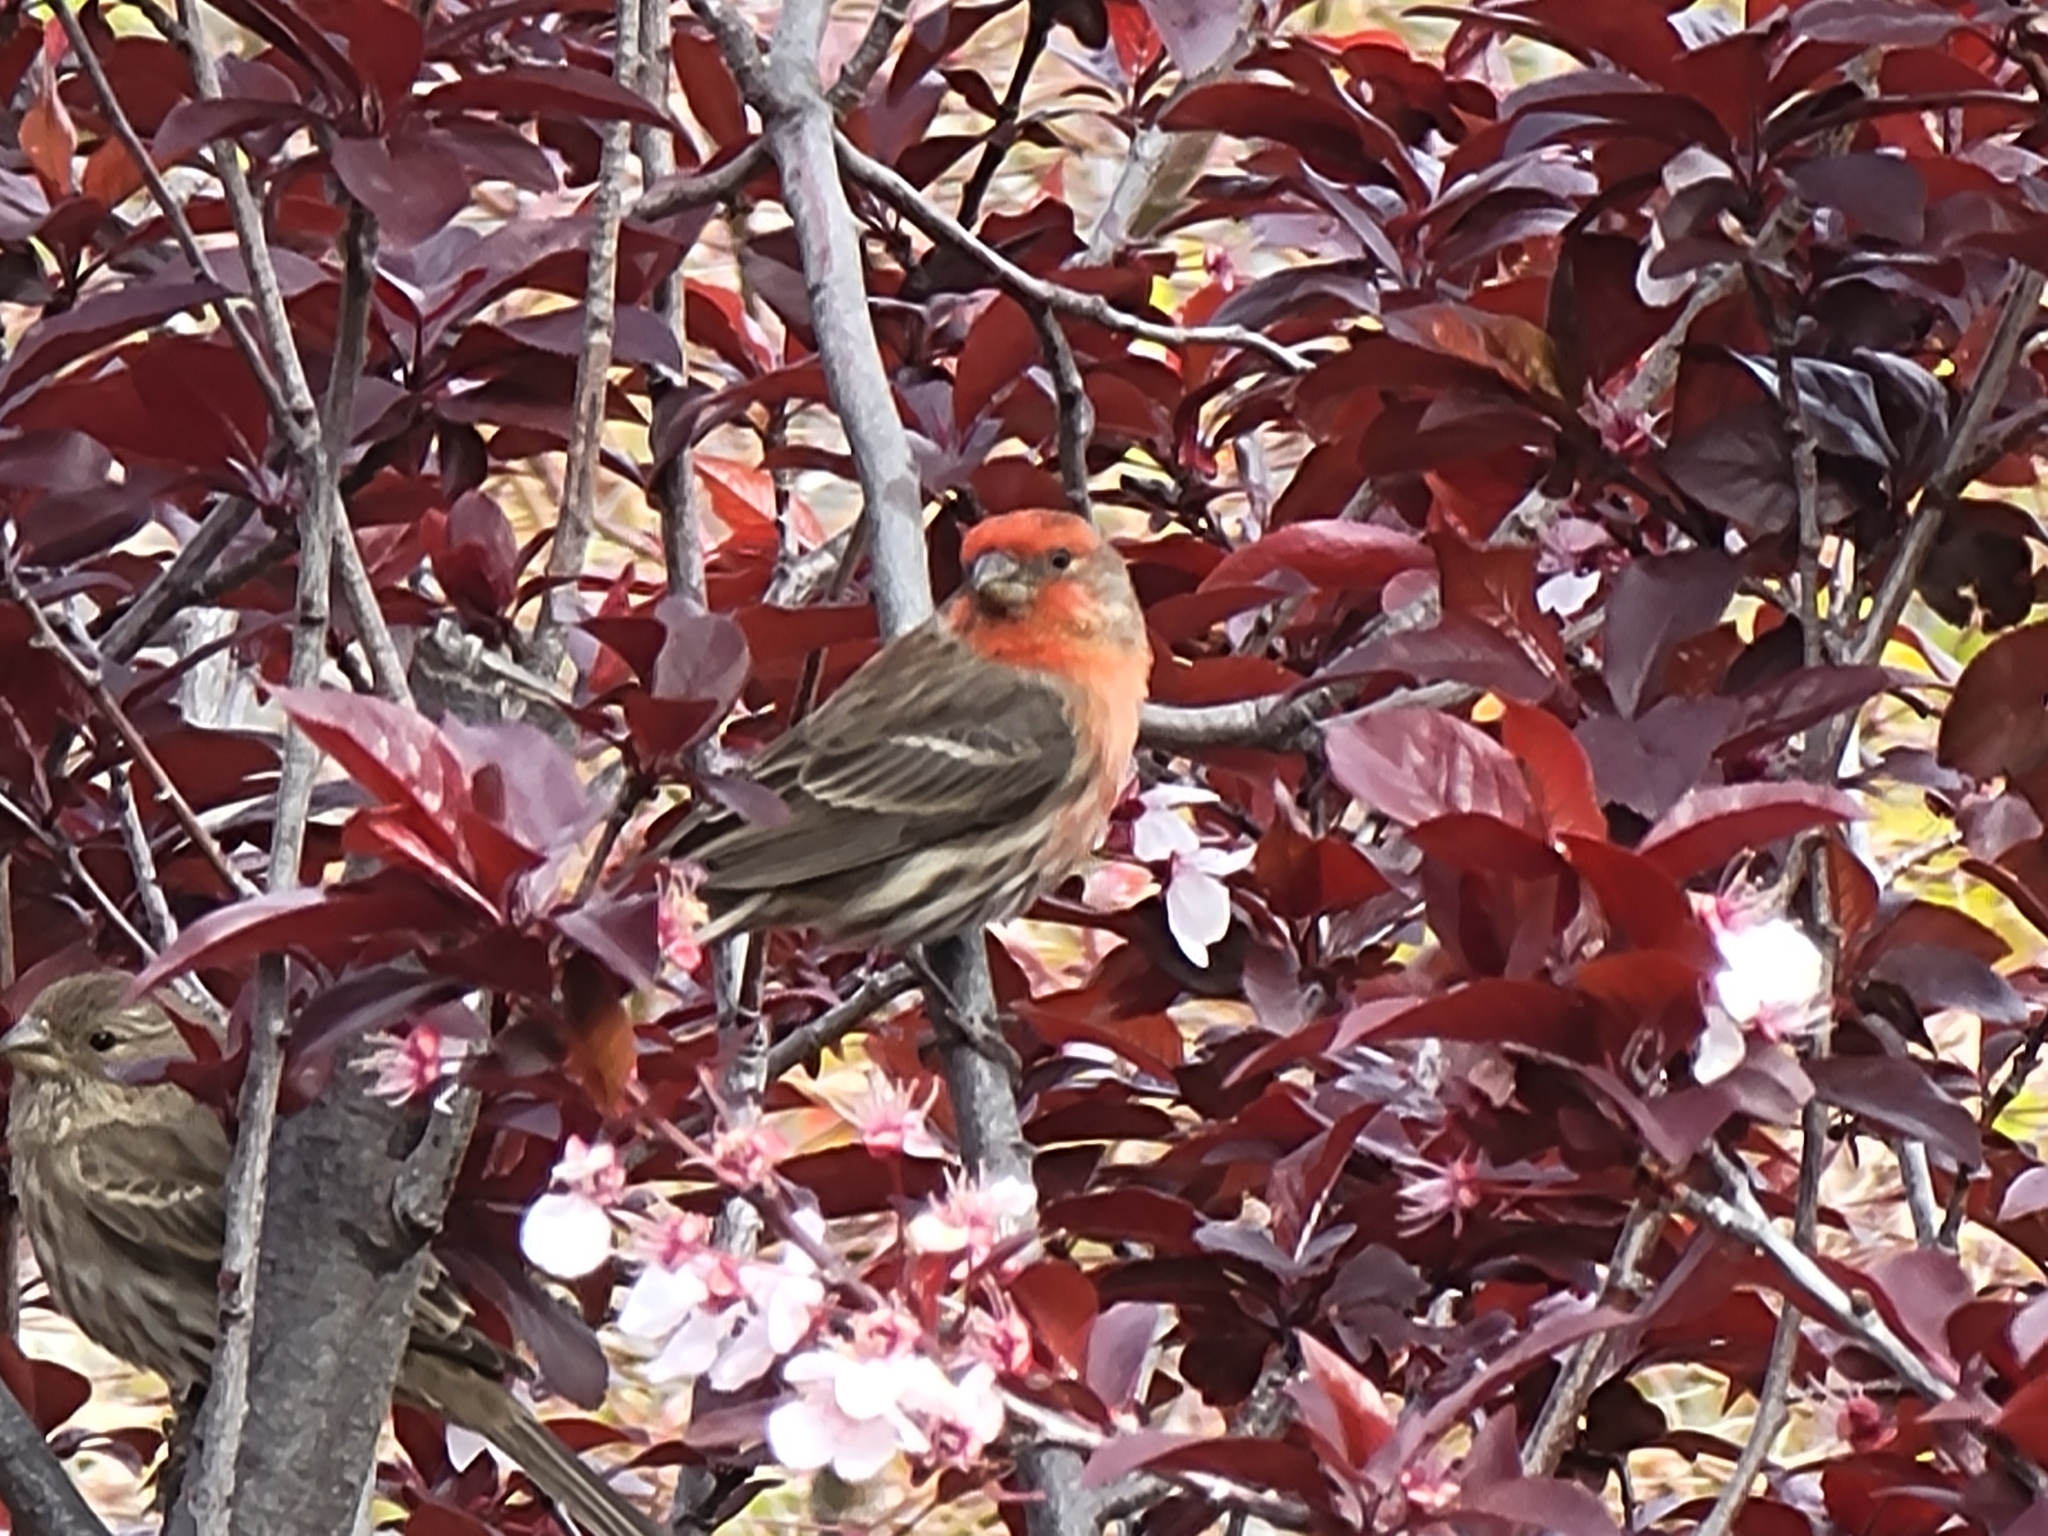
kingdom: Animalia
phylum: Chordata
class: Aves
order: Passeriformes
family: Fringillidae
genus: Haemorhous
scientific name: Haemorhous mexicanus
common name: House finch
